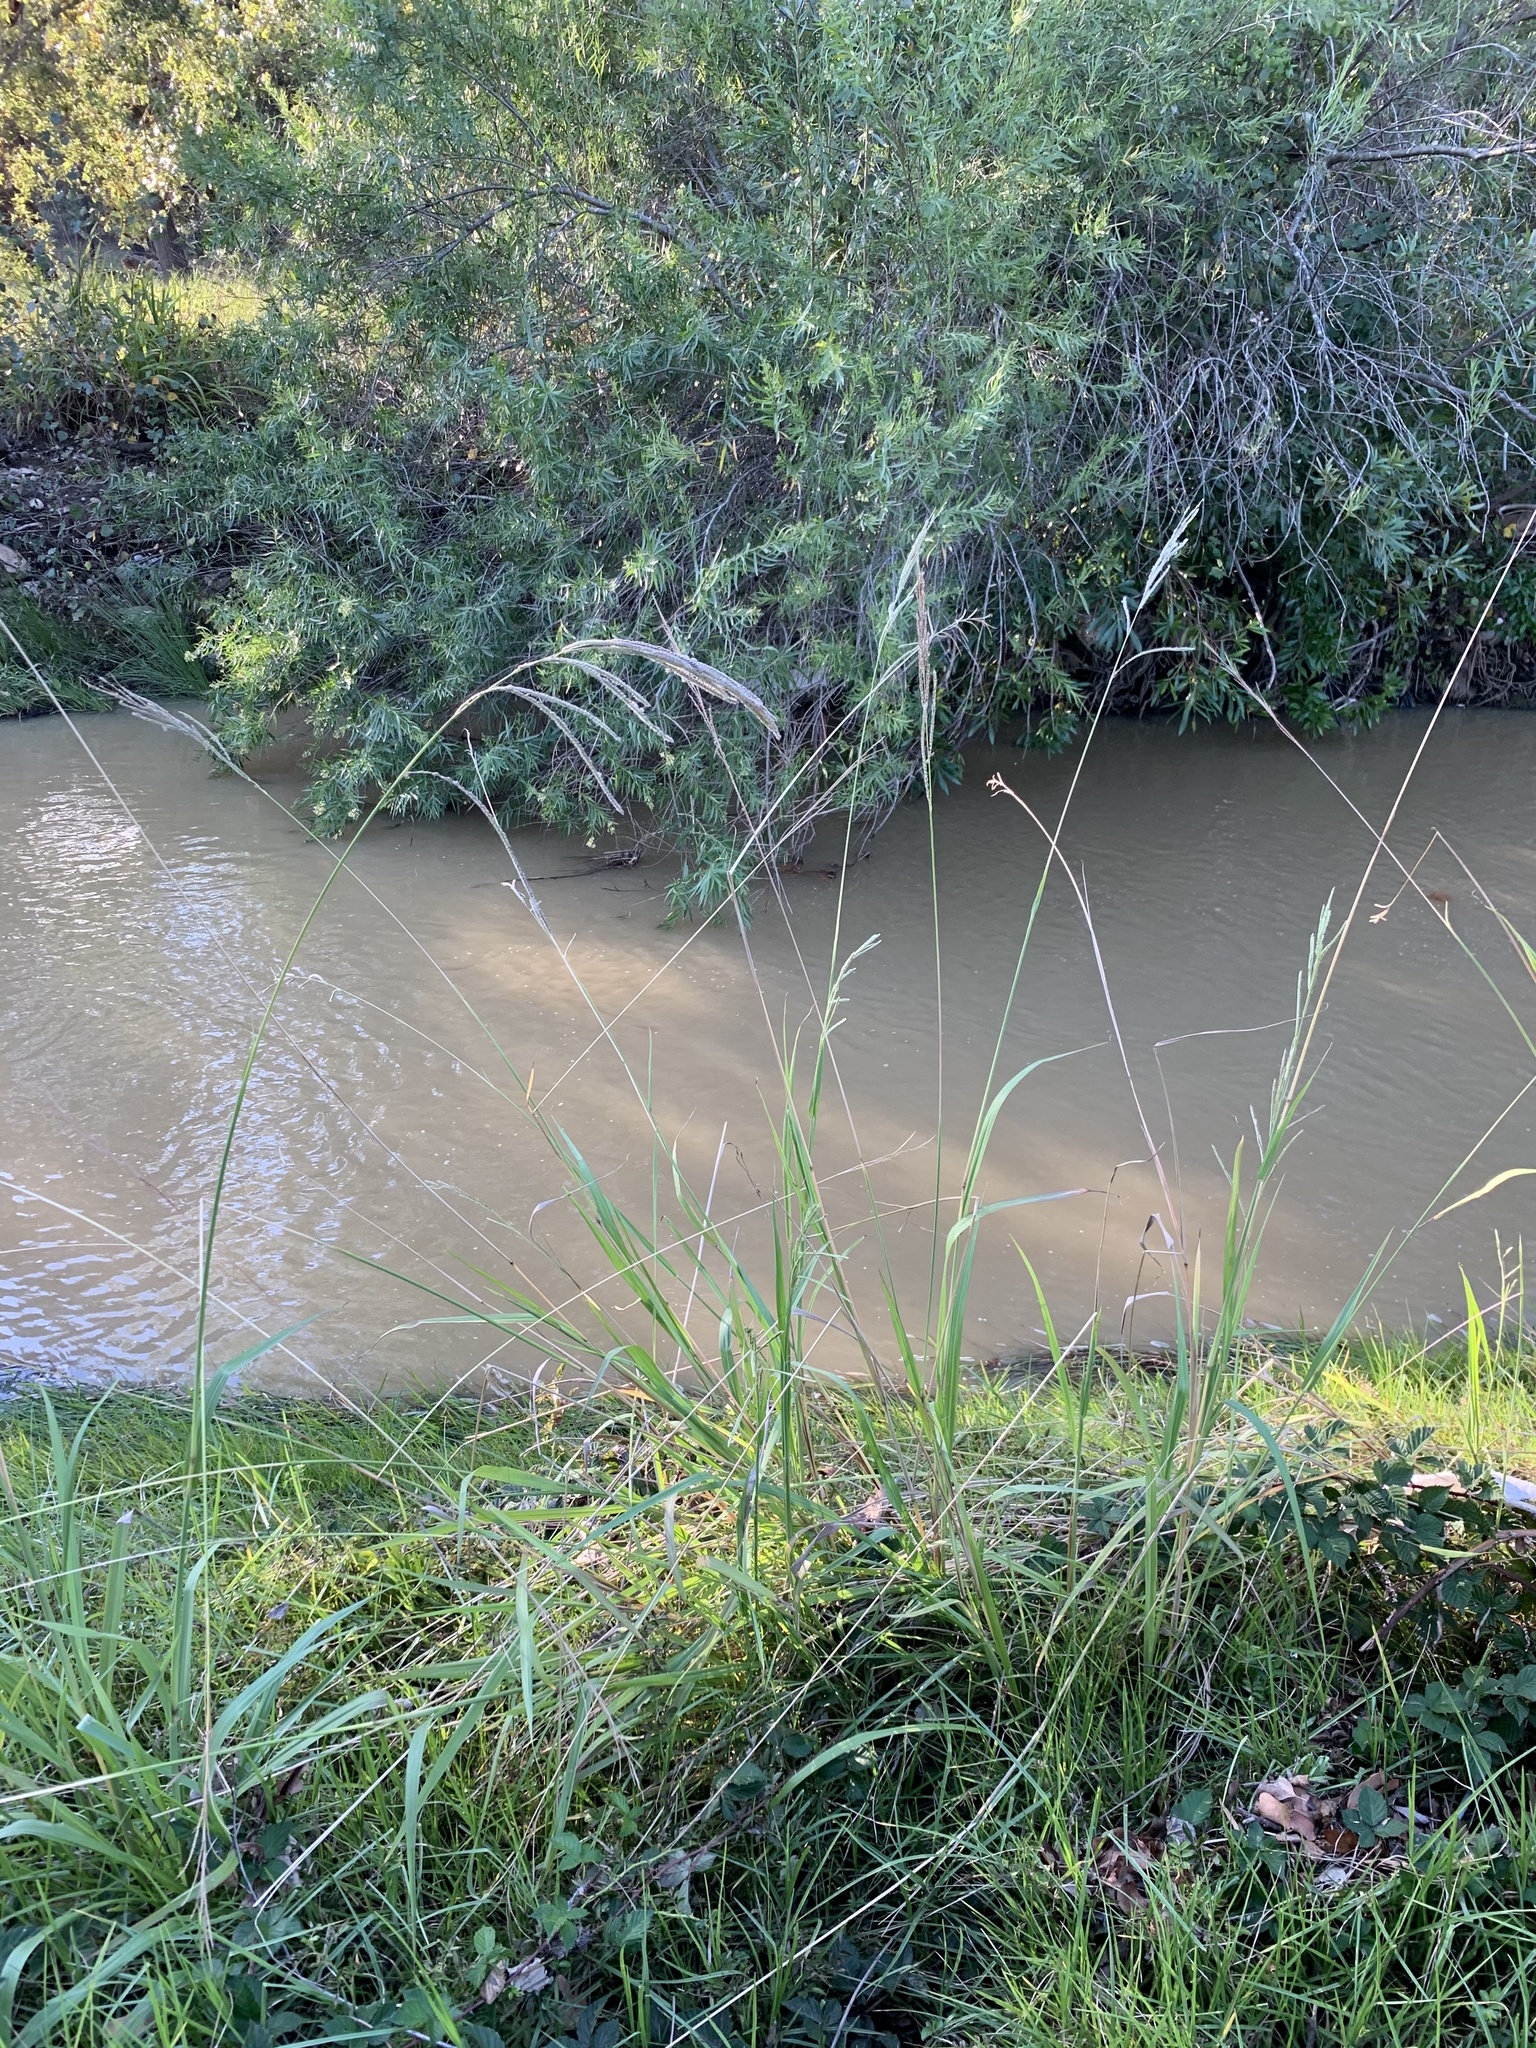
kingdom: Plantae
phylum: Tracheophyta
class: Liliopsida
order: Poales
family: Poaceae
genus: Paspalum
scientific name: Paspalum urvillei
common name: Vasey's grass
